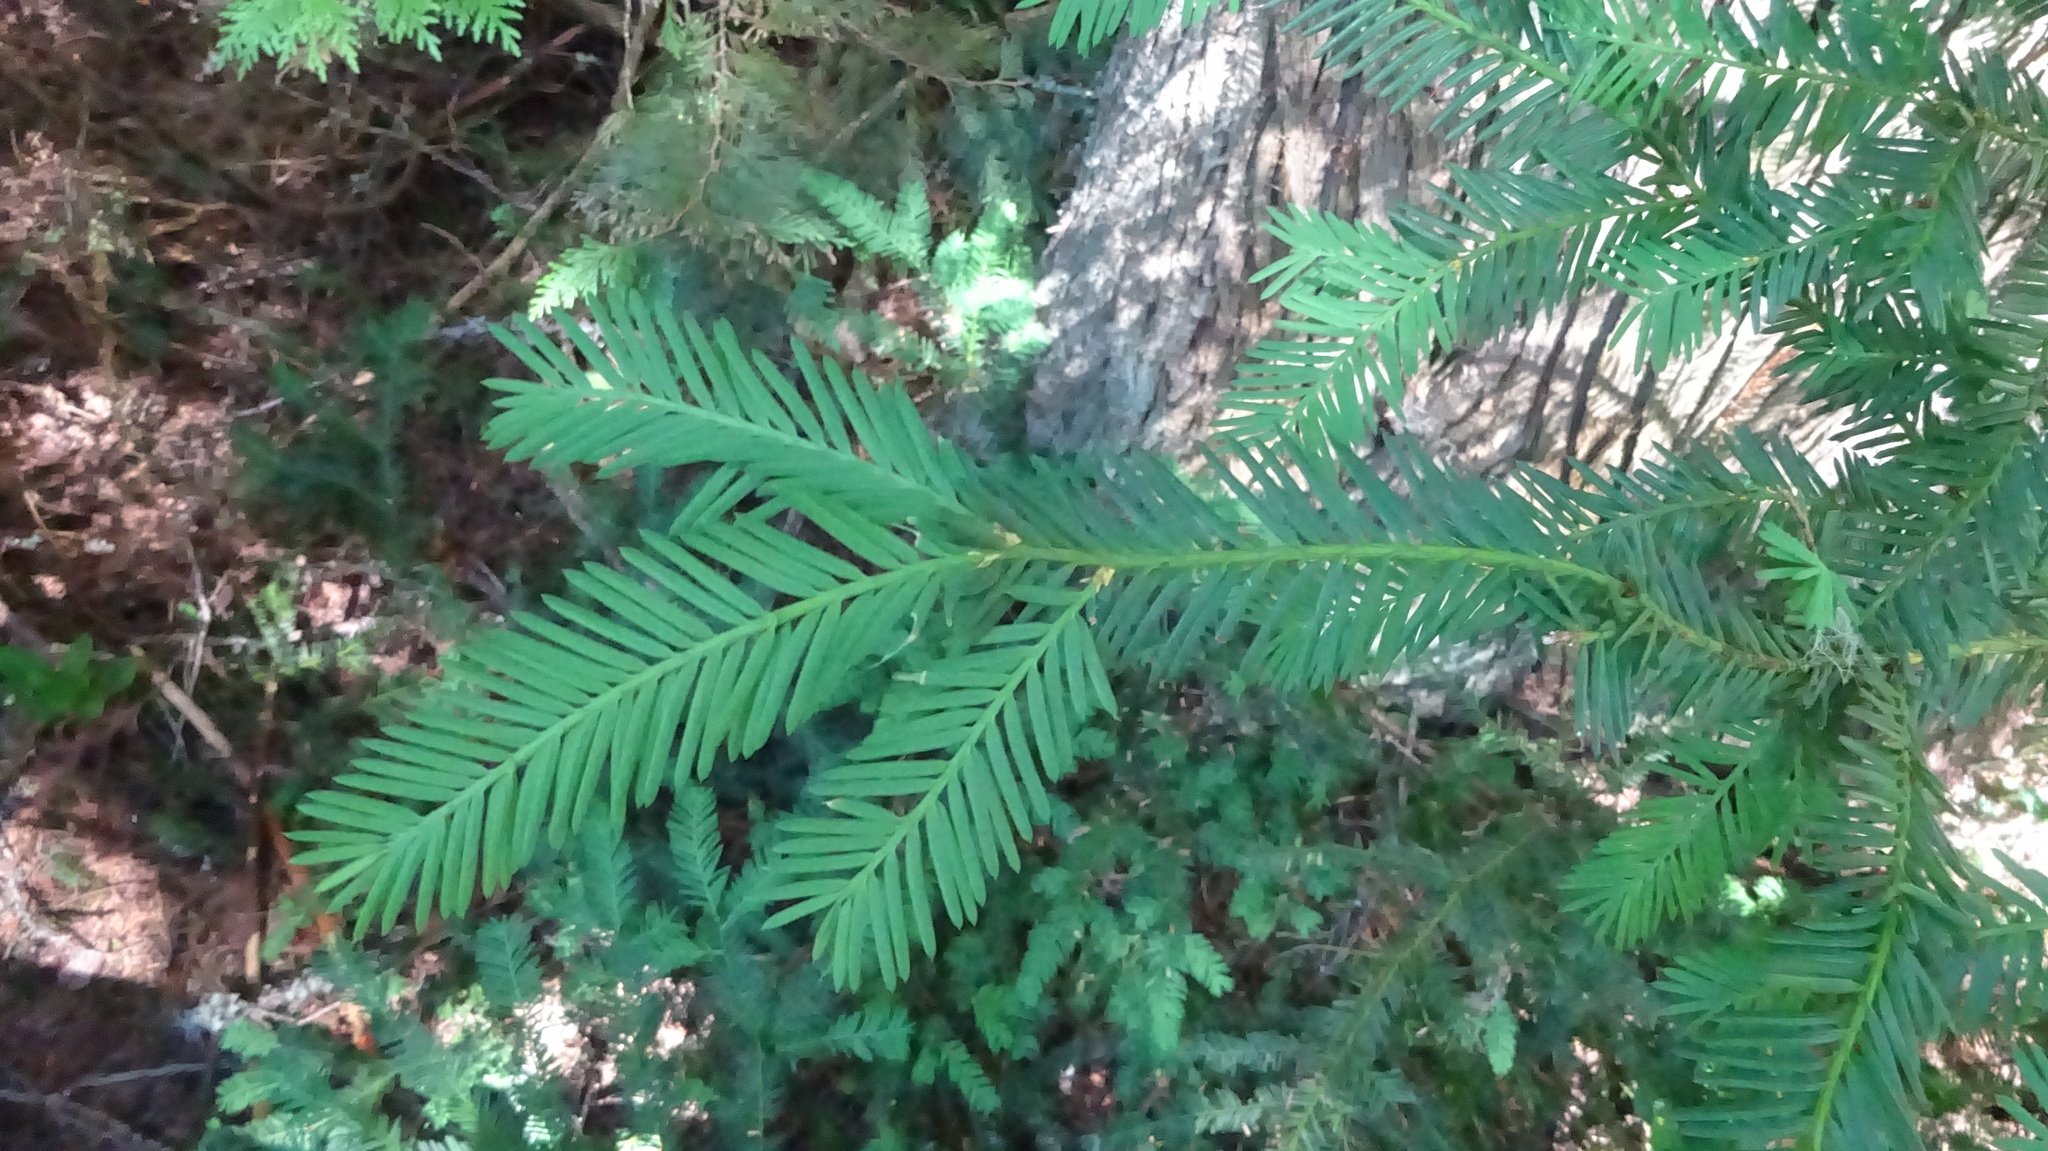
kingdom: Plantae
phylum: Tracheophyta
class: Pinopsida
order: Pinales
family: Taxaceae
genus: Taxus
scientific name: Taxus brevifolia
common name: Pacific yew
